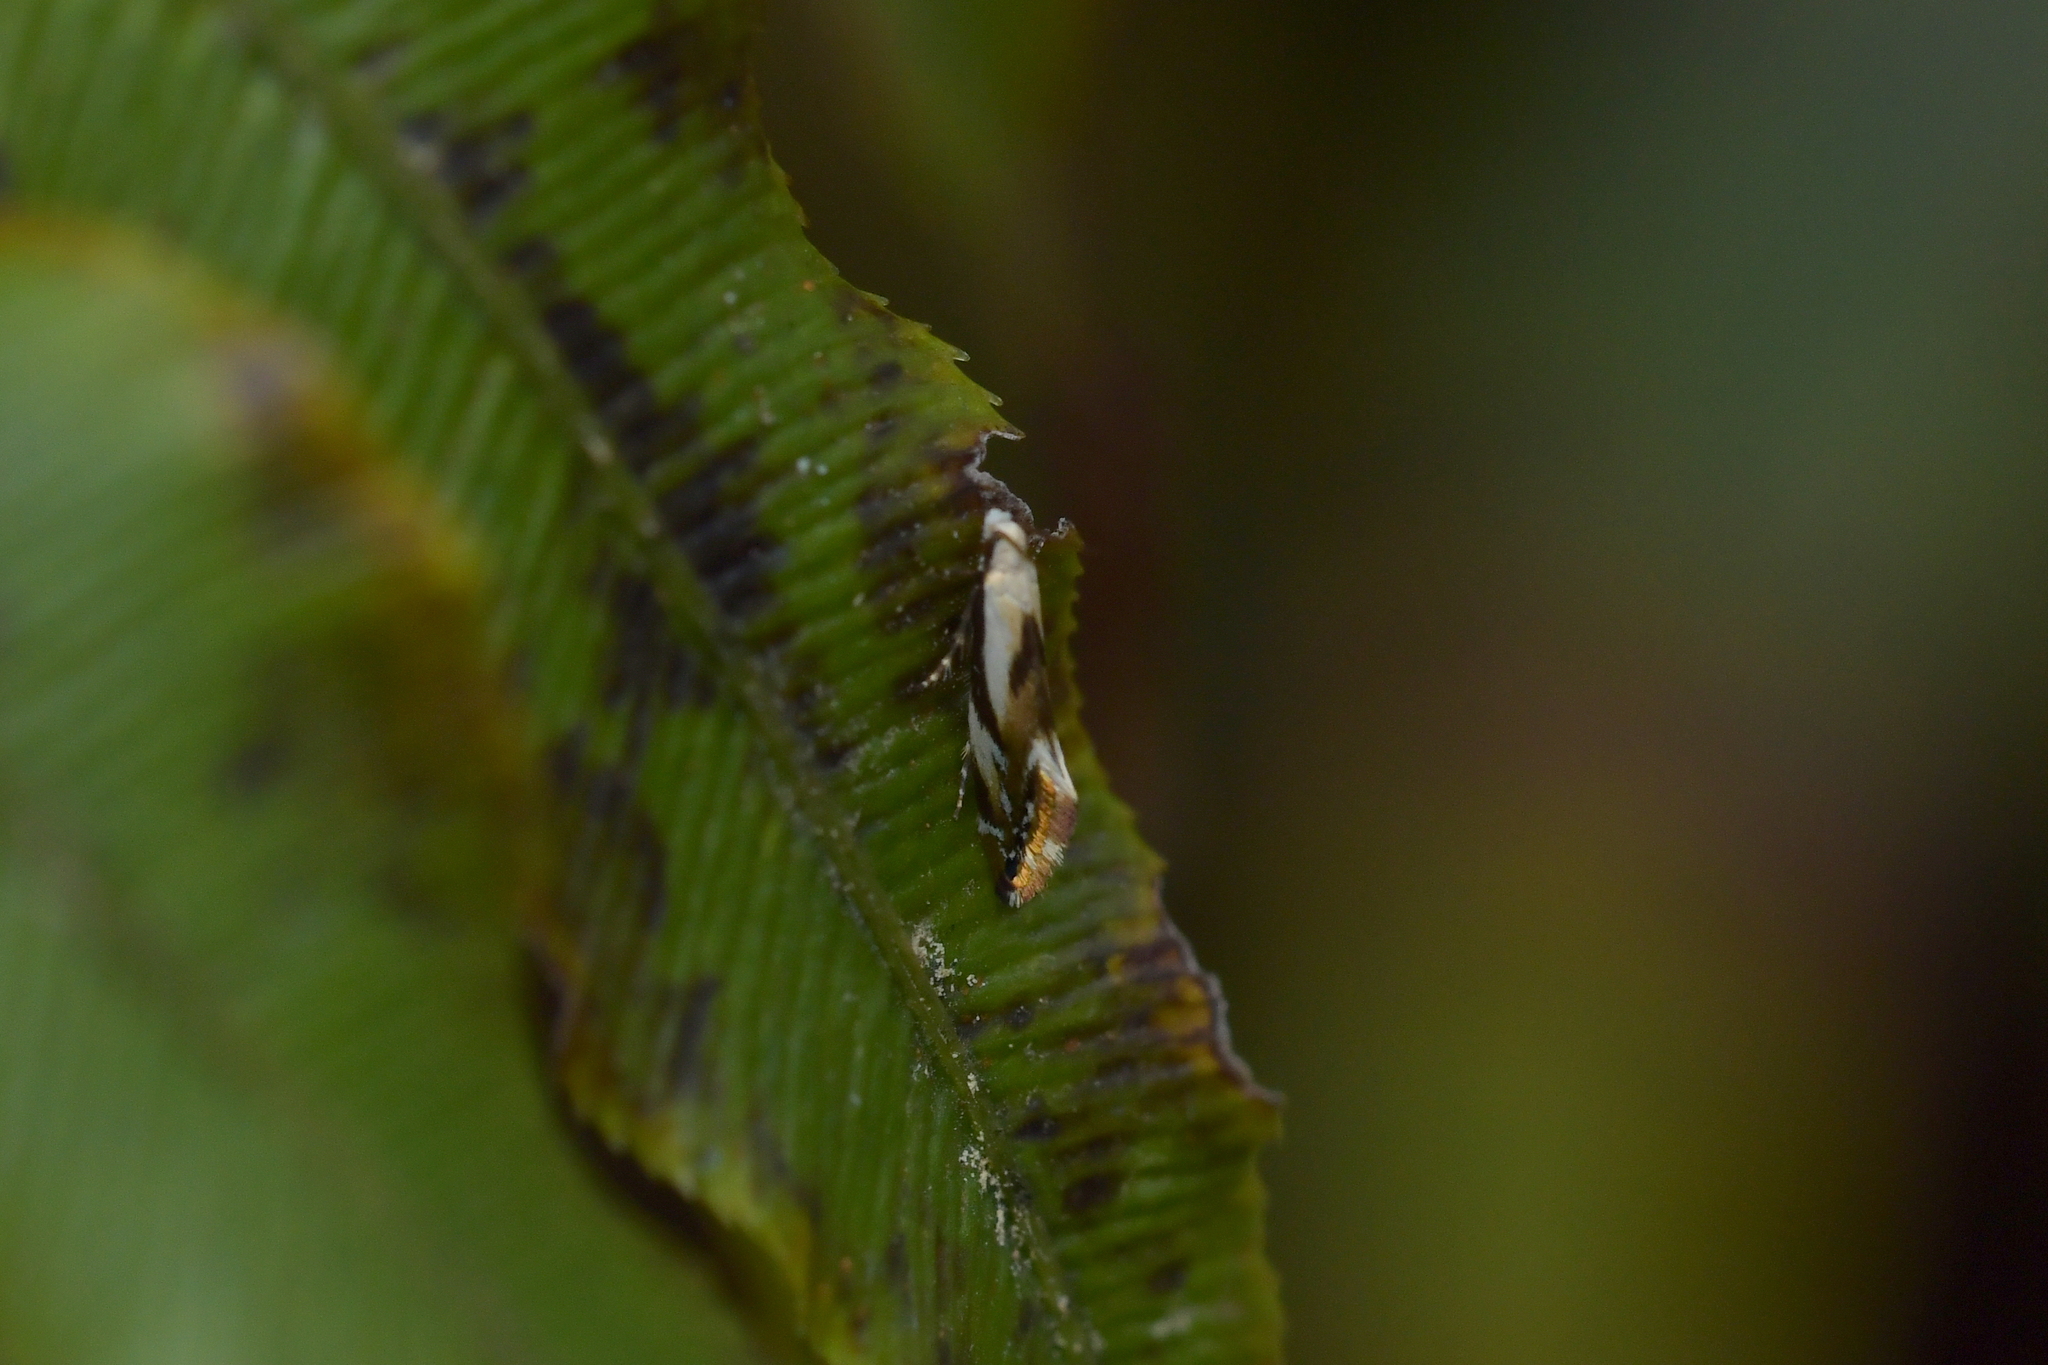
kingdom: Animalia
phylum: Arthropoda
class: Insecta
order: Lepidoptera
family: Mnesarchaeidae
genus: Mnesarchella
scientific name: Mnesarchella acuta
